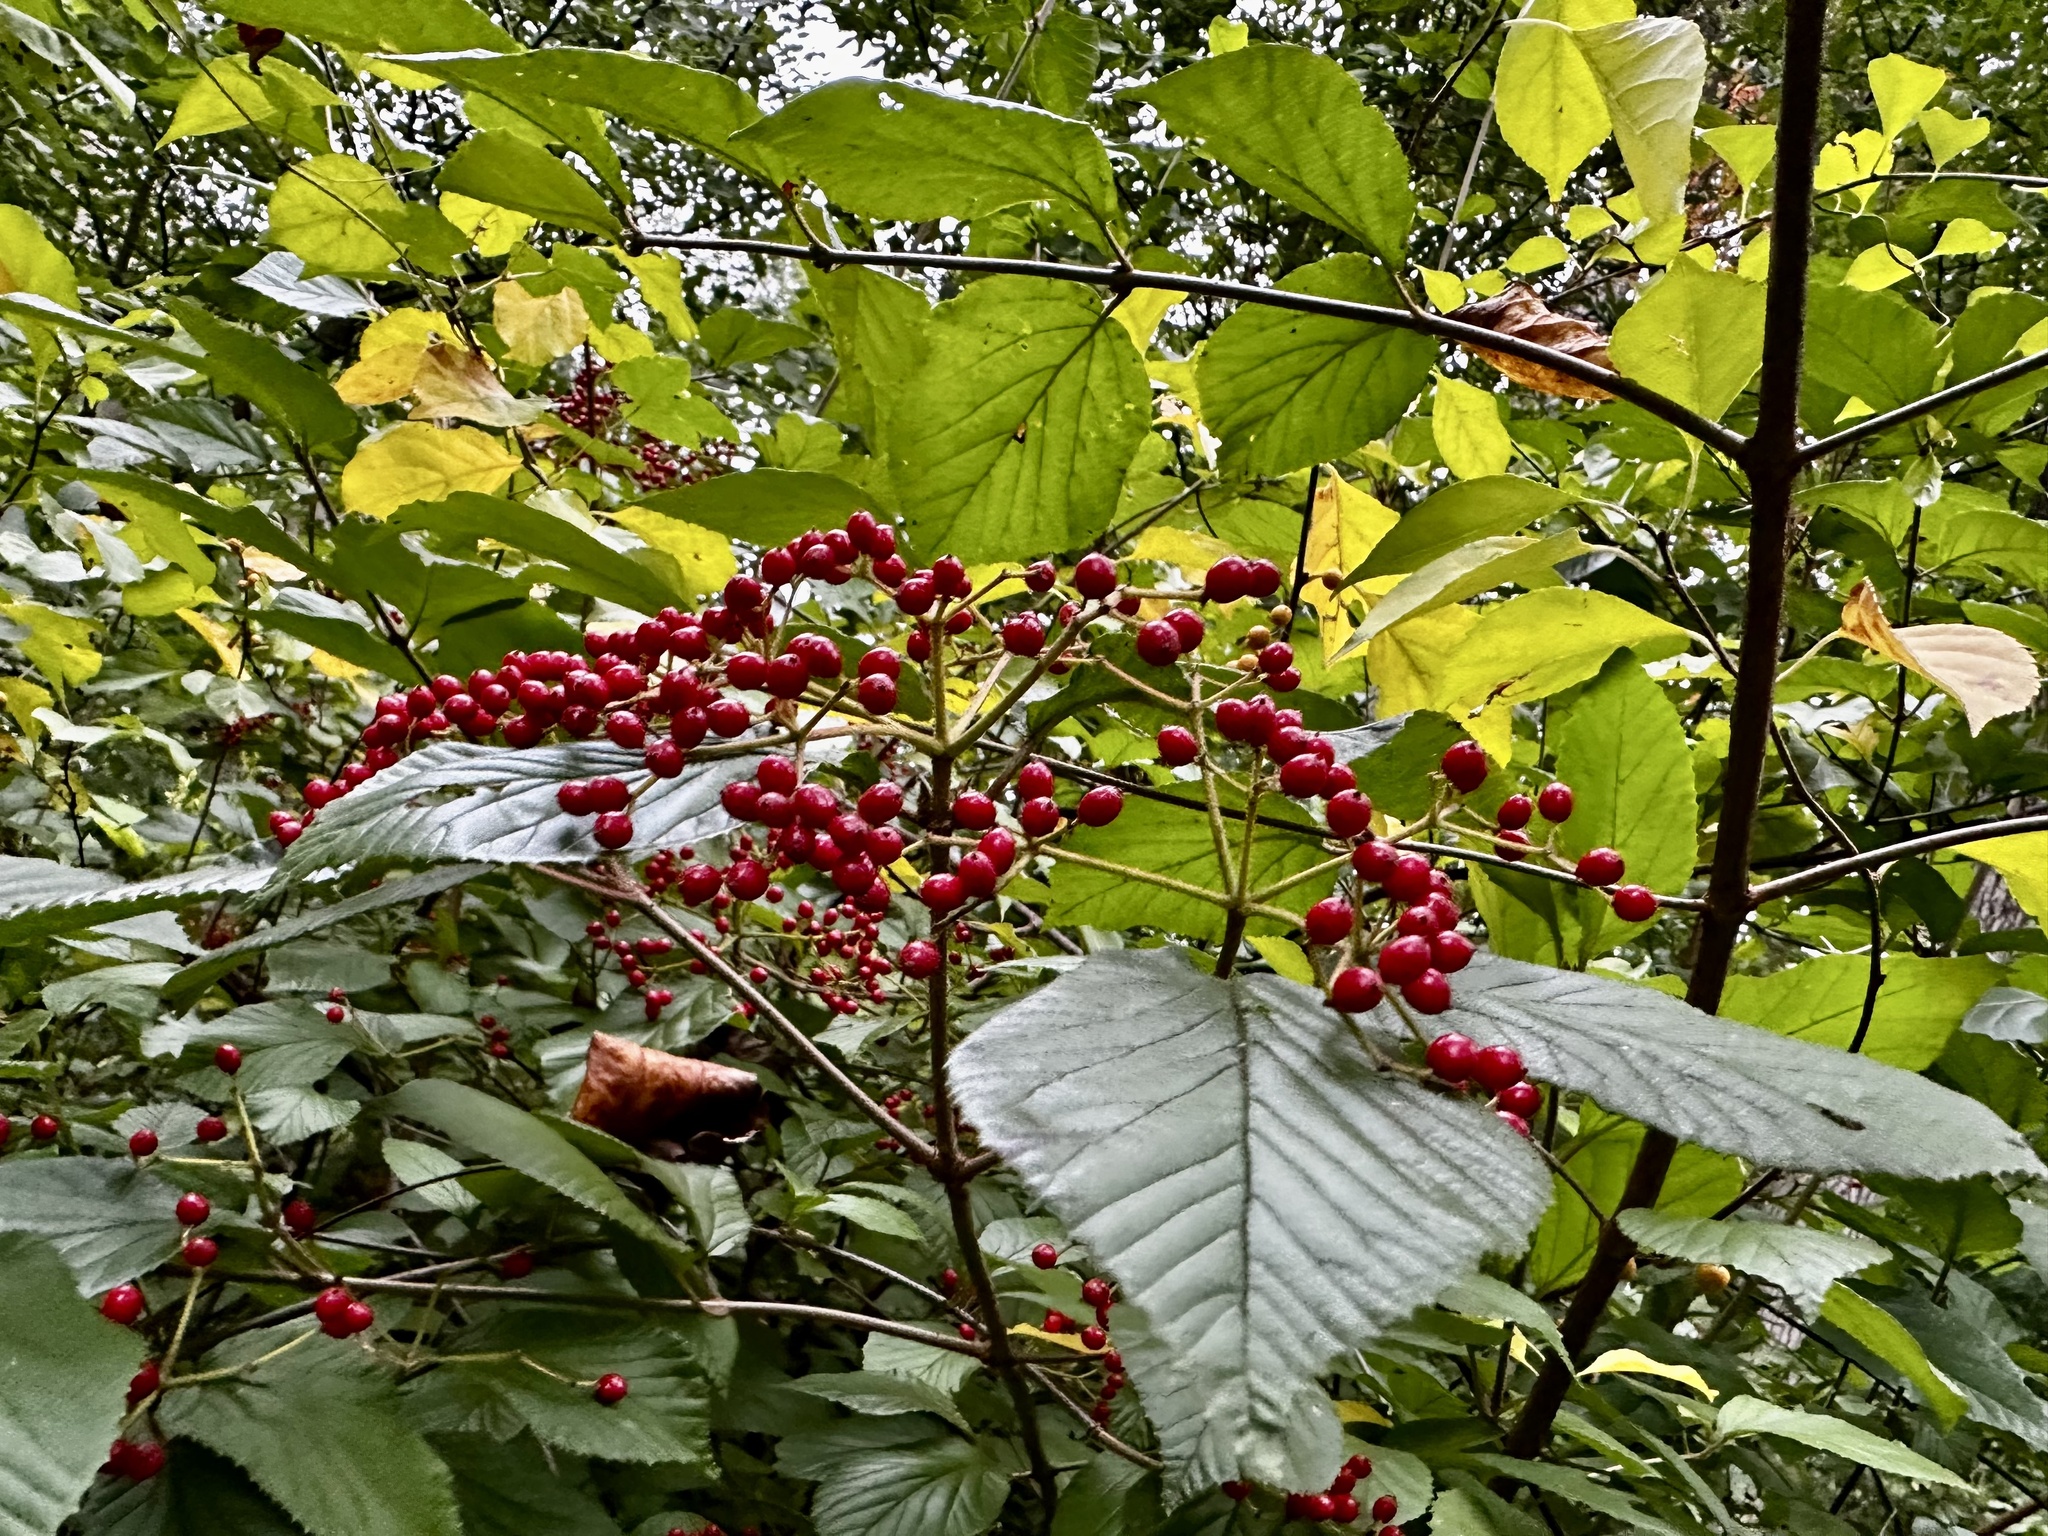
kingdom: Plantae
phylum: Tracheophyta
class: Magnoliopsida
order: Dipsacales
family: Viburnaceae
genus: Viburnum
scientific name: Viburnum dilatatum
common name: Linden arrowwood
